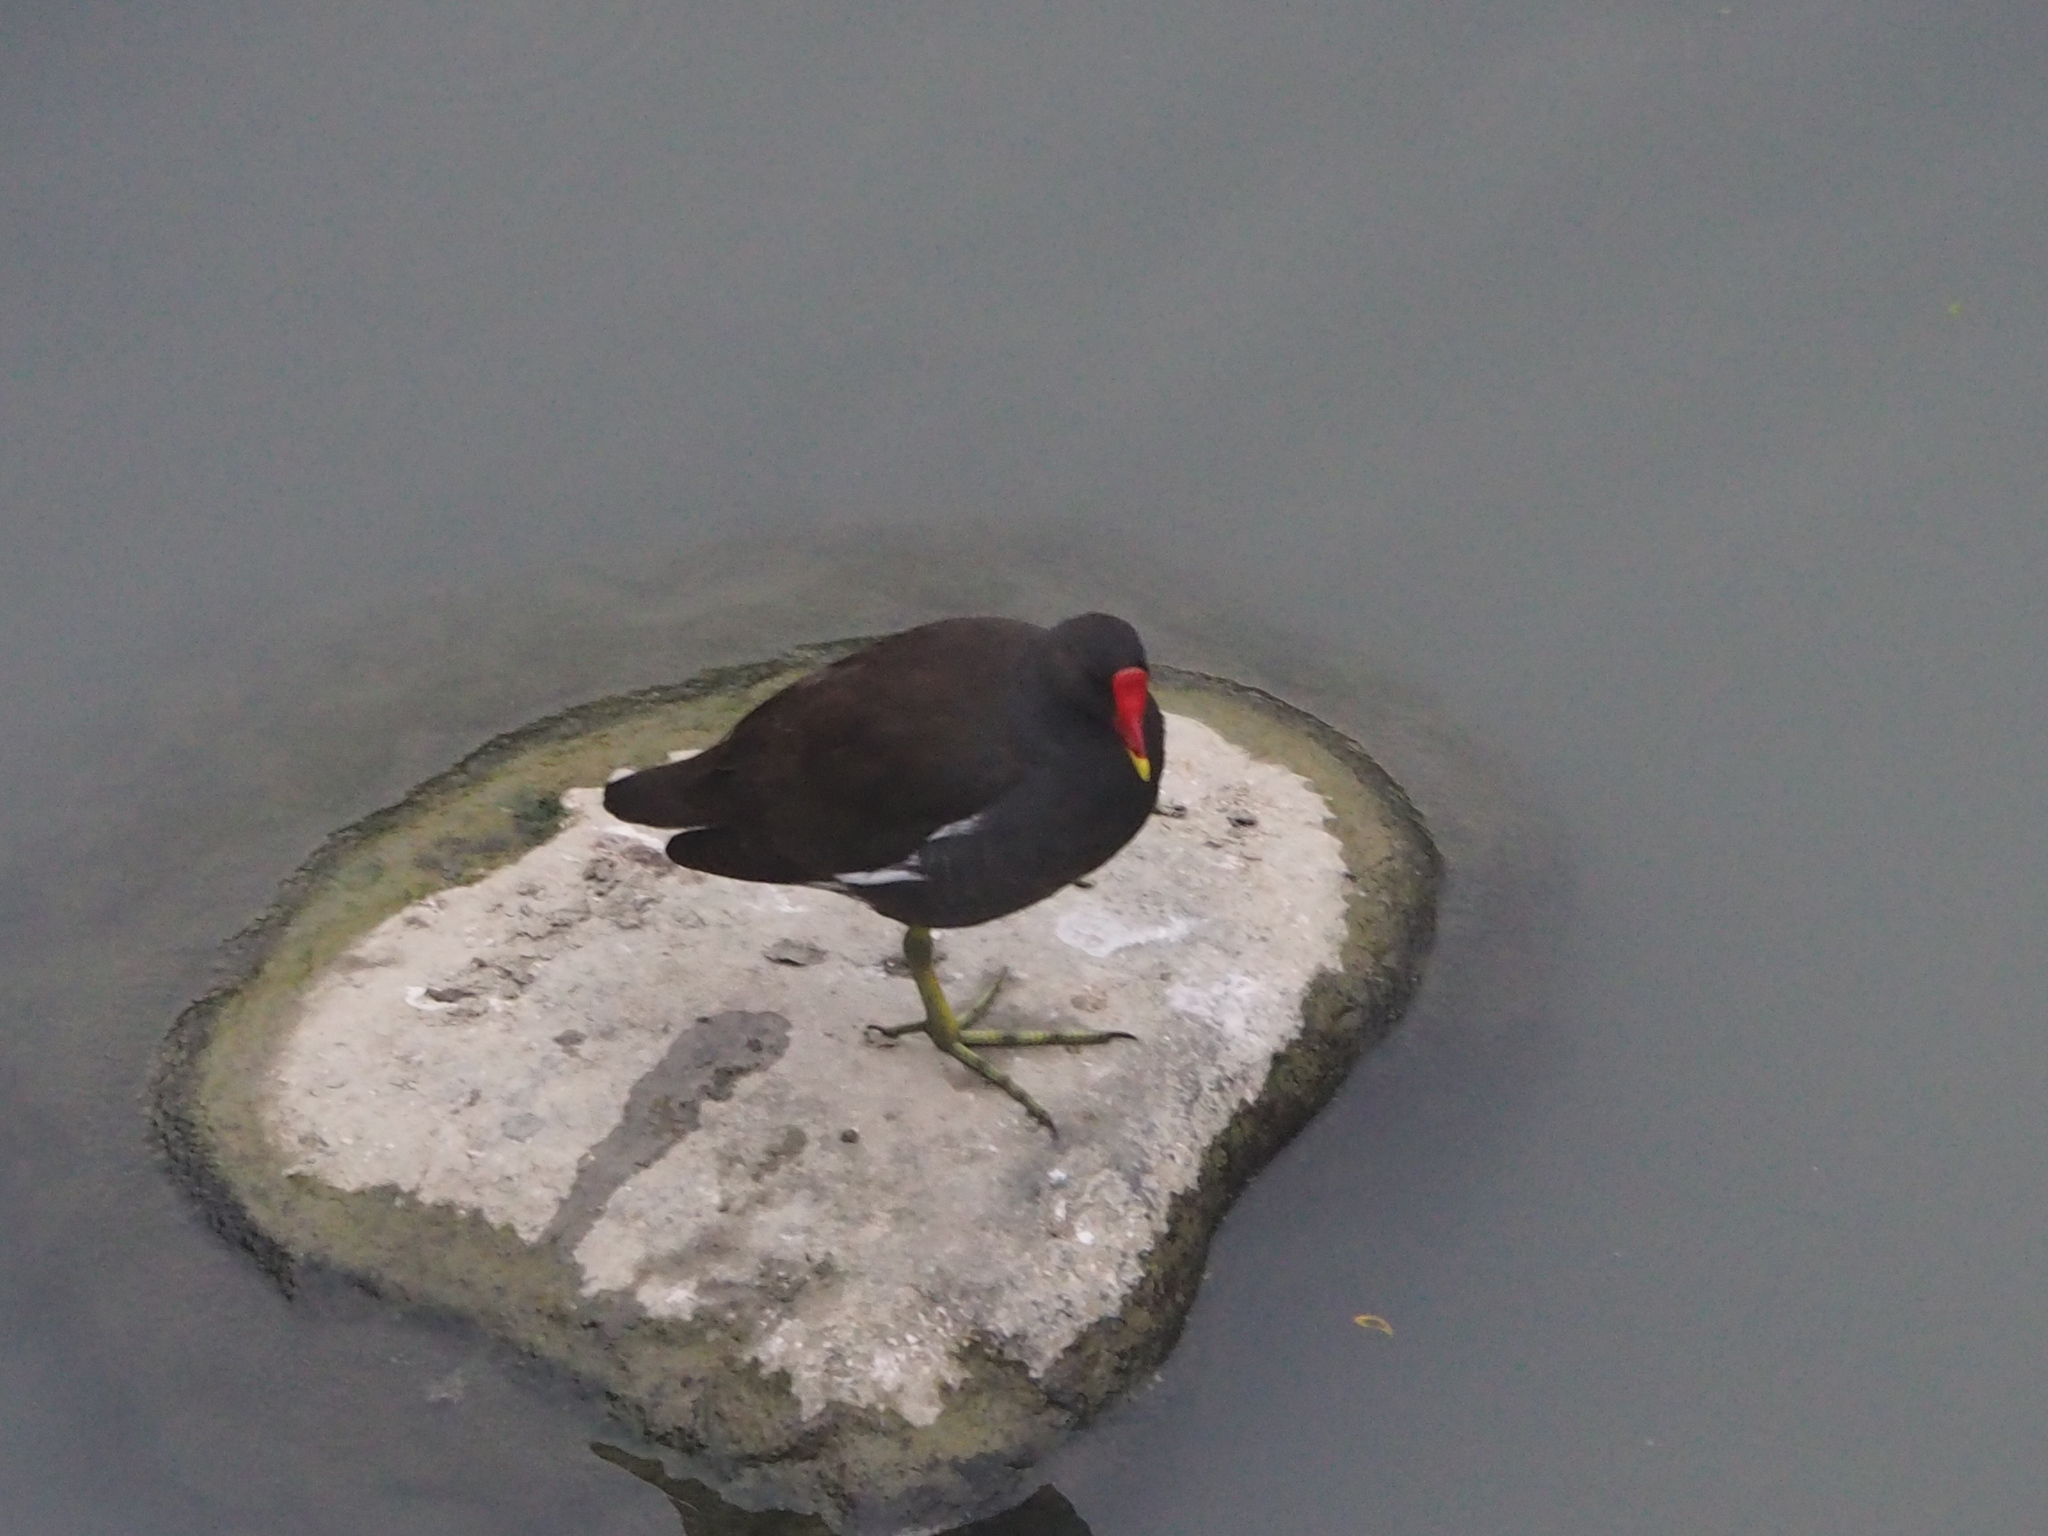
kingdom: Animalia
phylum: Chordata
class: Aves
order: Gruiformes
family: Rallidae
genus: Gallinula
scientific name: Gallinula chloropus
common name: Common moorhen
